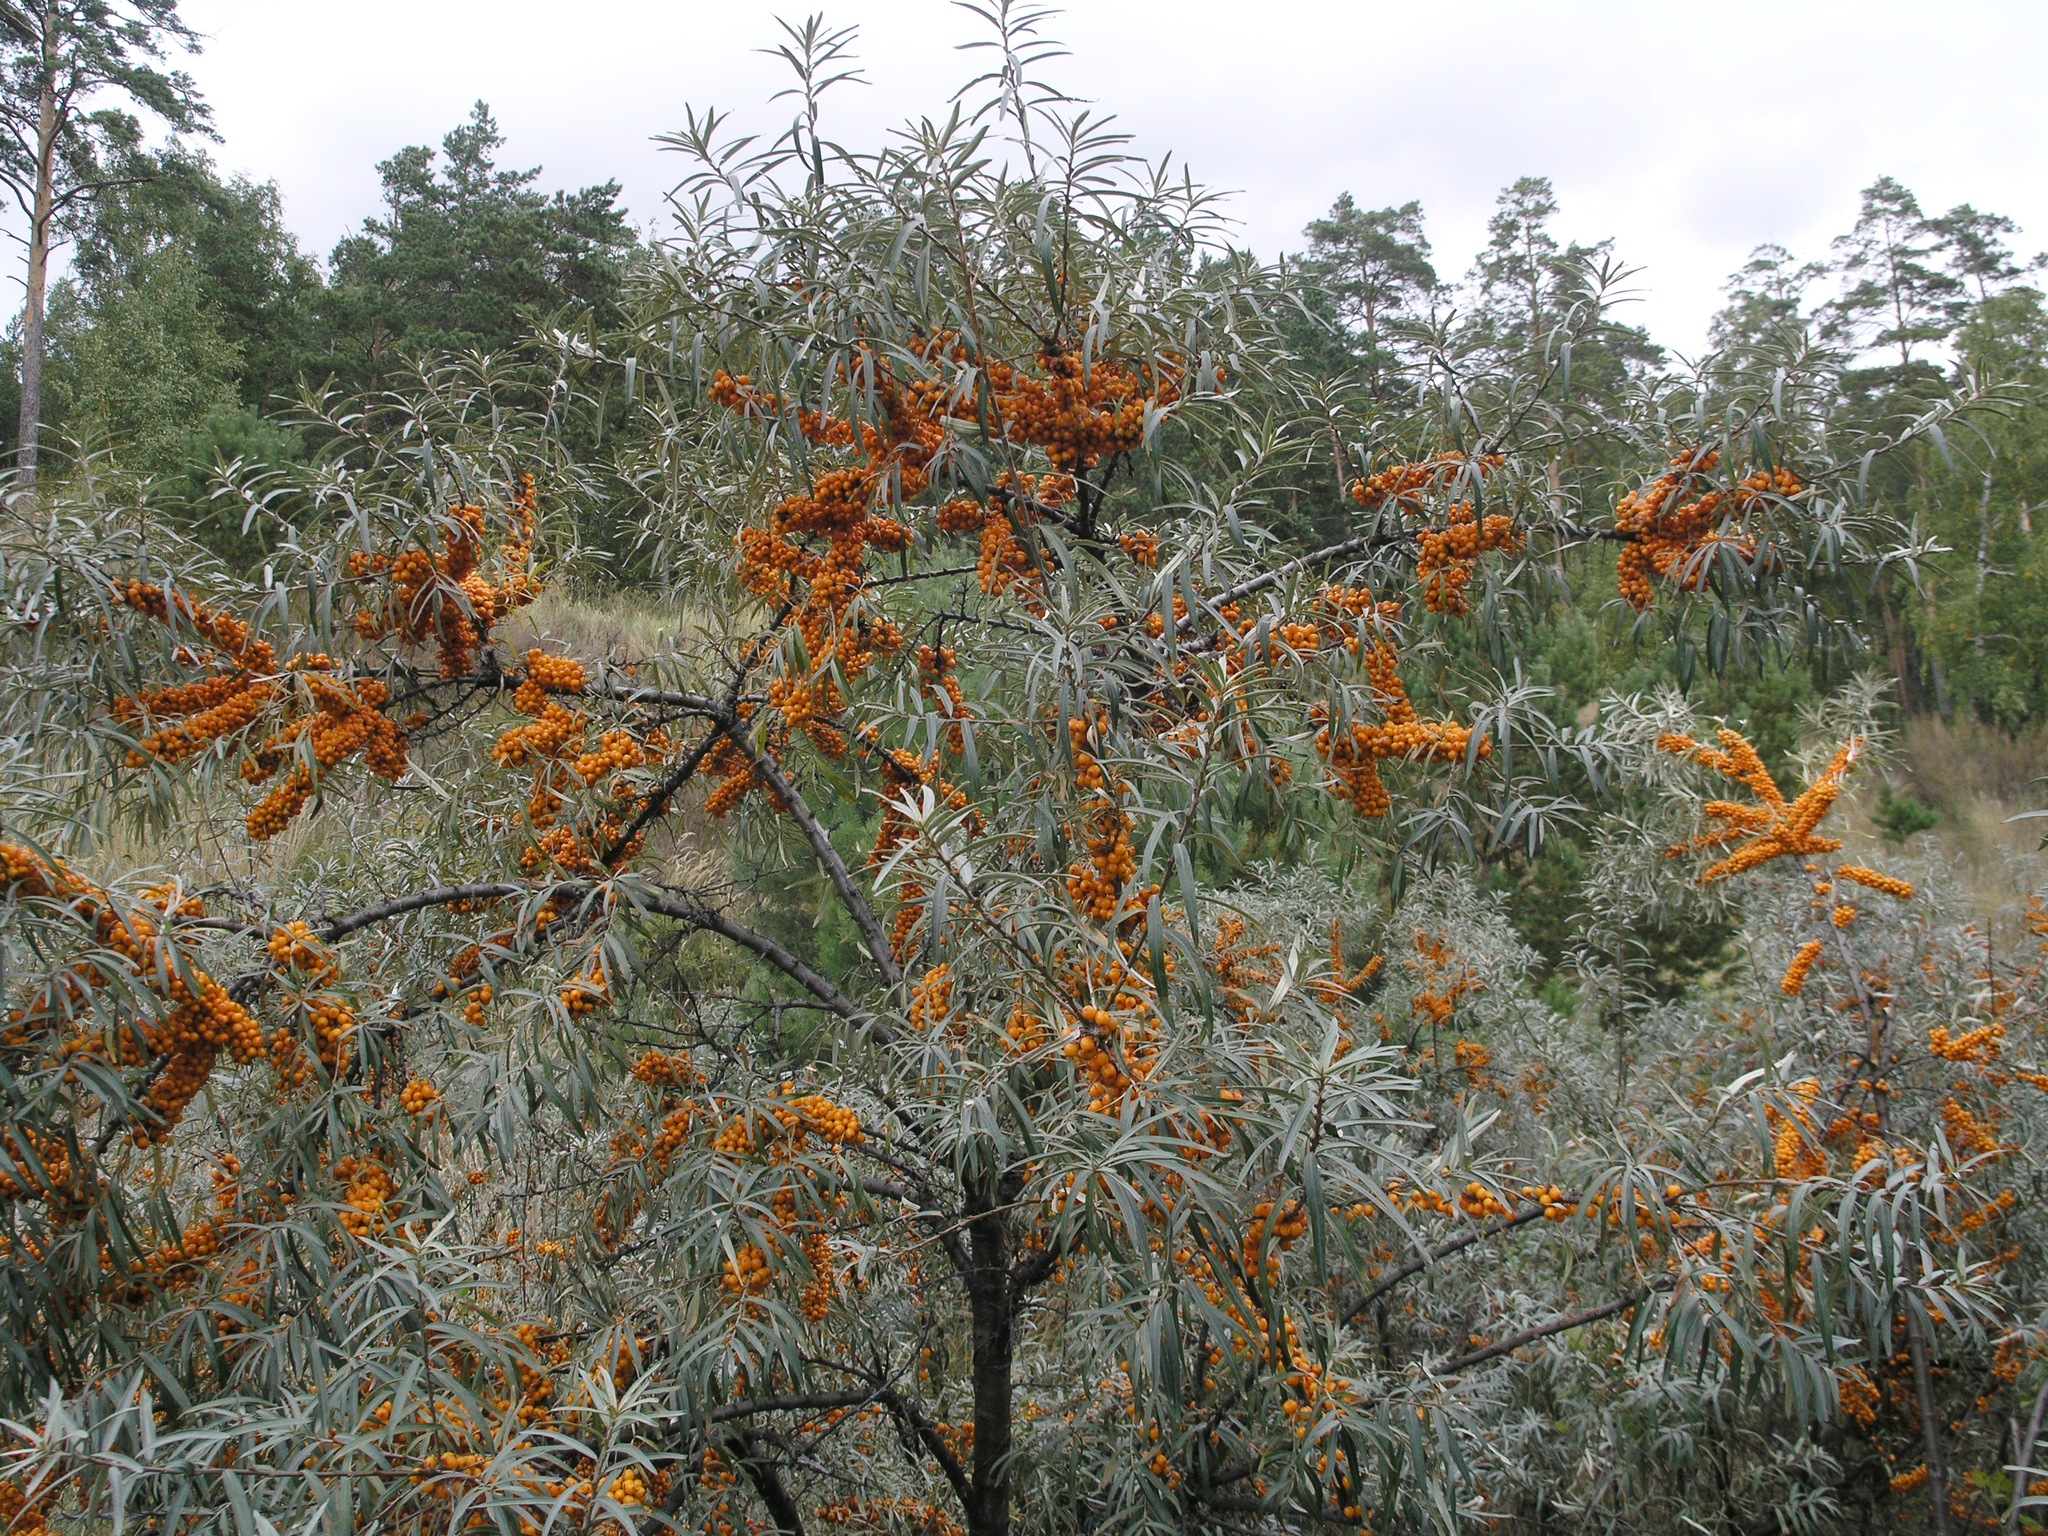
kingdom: Plantae
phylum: Tracheophyta
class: Magnoliopsida
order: Rosales
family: Elaeagnaceae
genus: Hippophae
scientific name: Hippophae rhamnoides
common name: Sea-buckthorn
